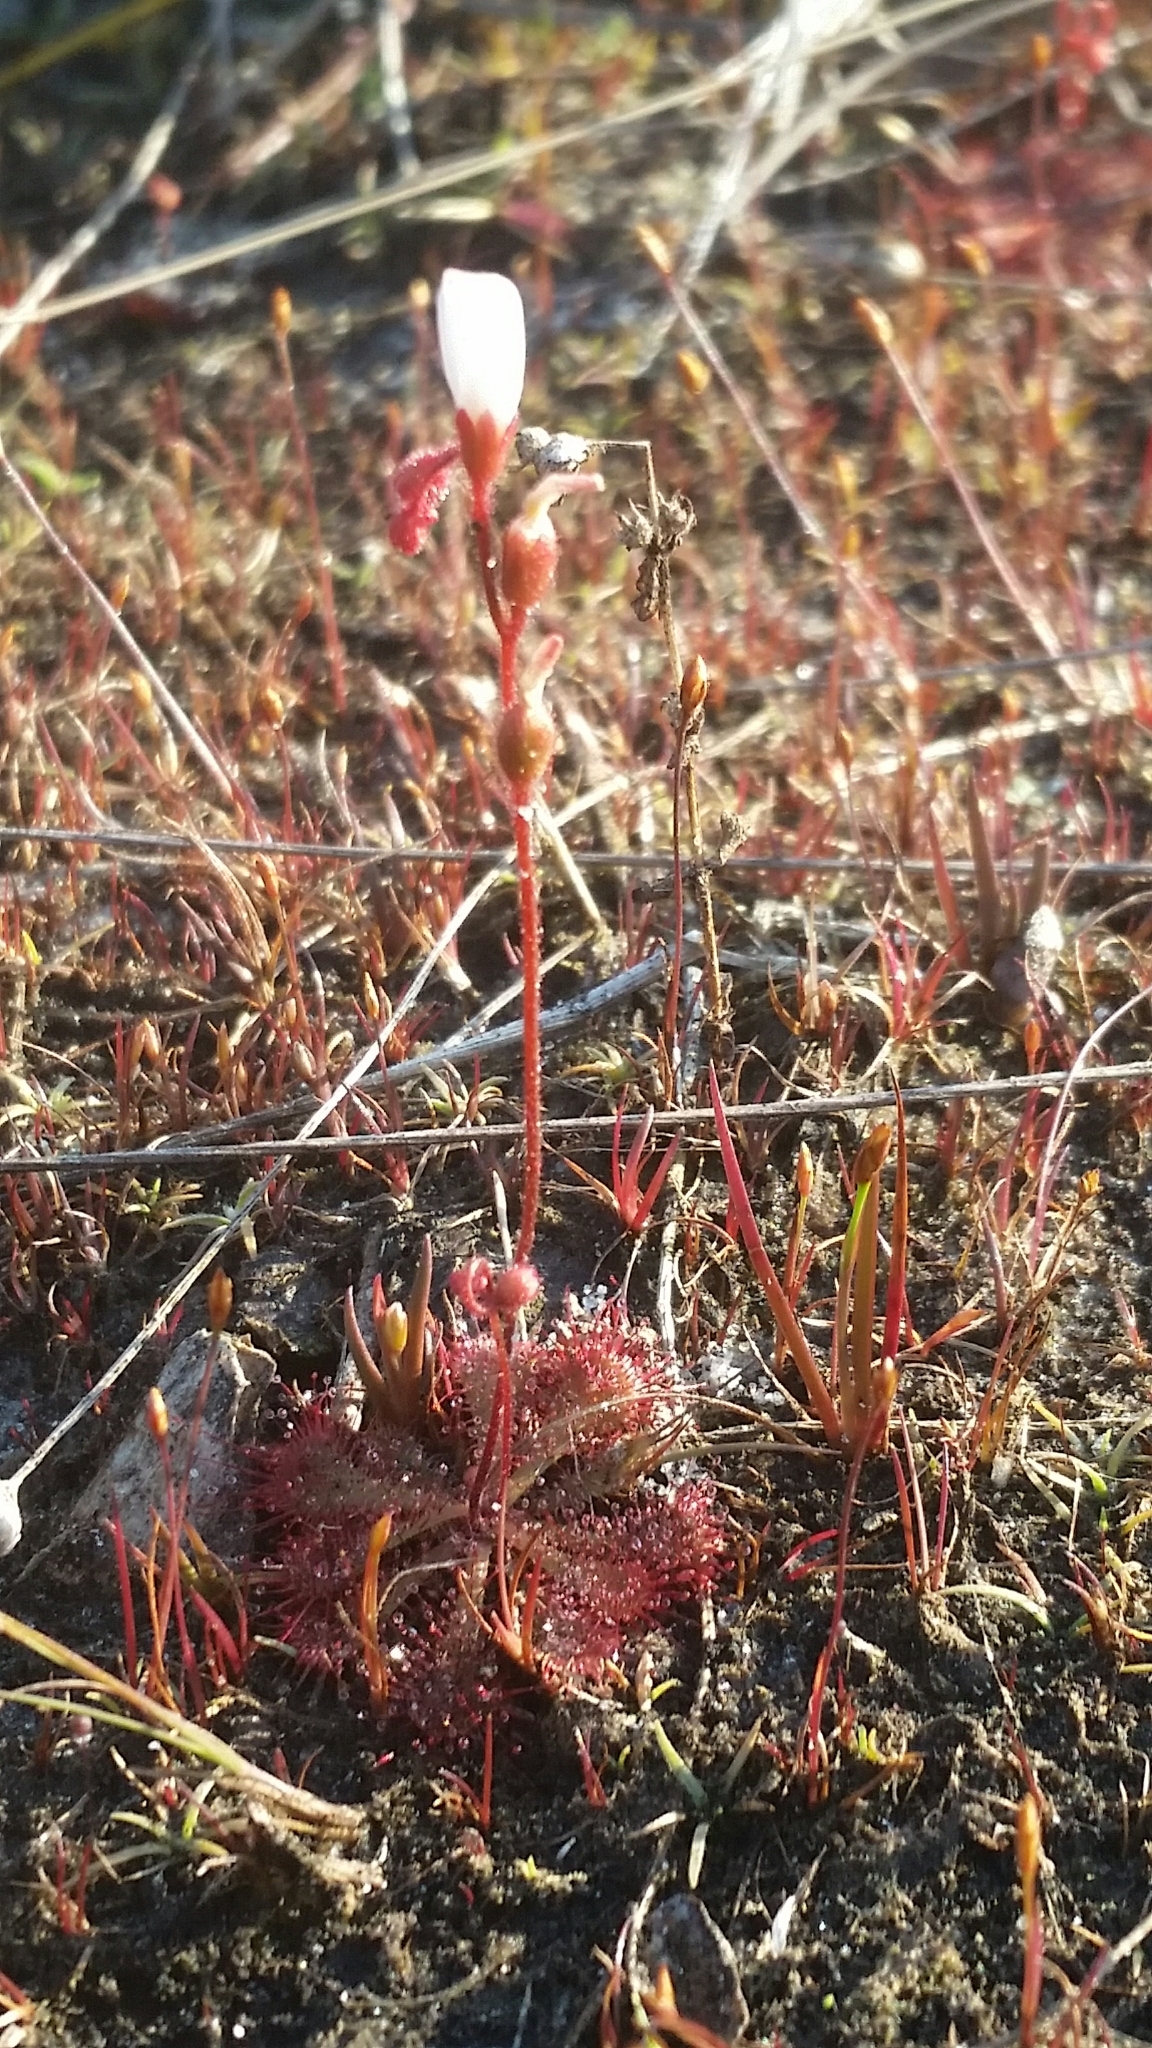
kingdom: Plantae
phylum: Tracheophyta
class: Magnoliopsida
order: Caryophyllales
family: Droseraceae
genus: Drosera
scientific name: Drosera brevifolia
